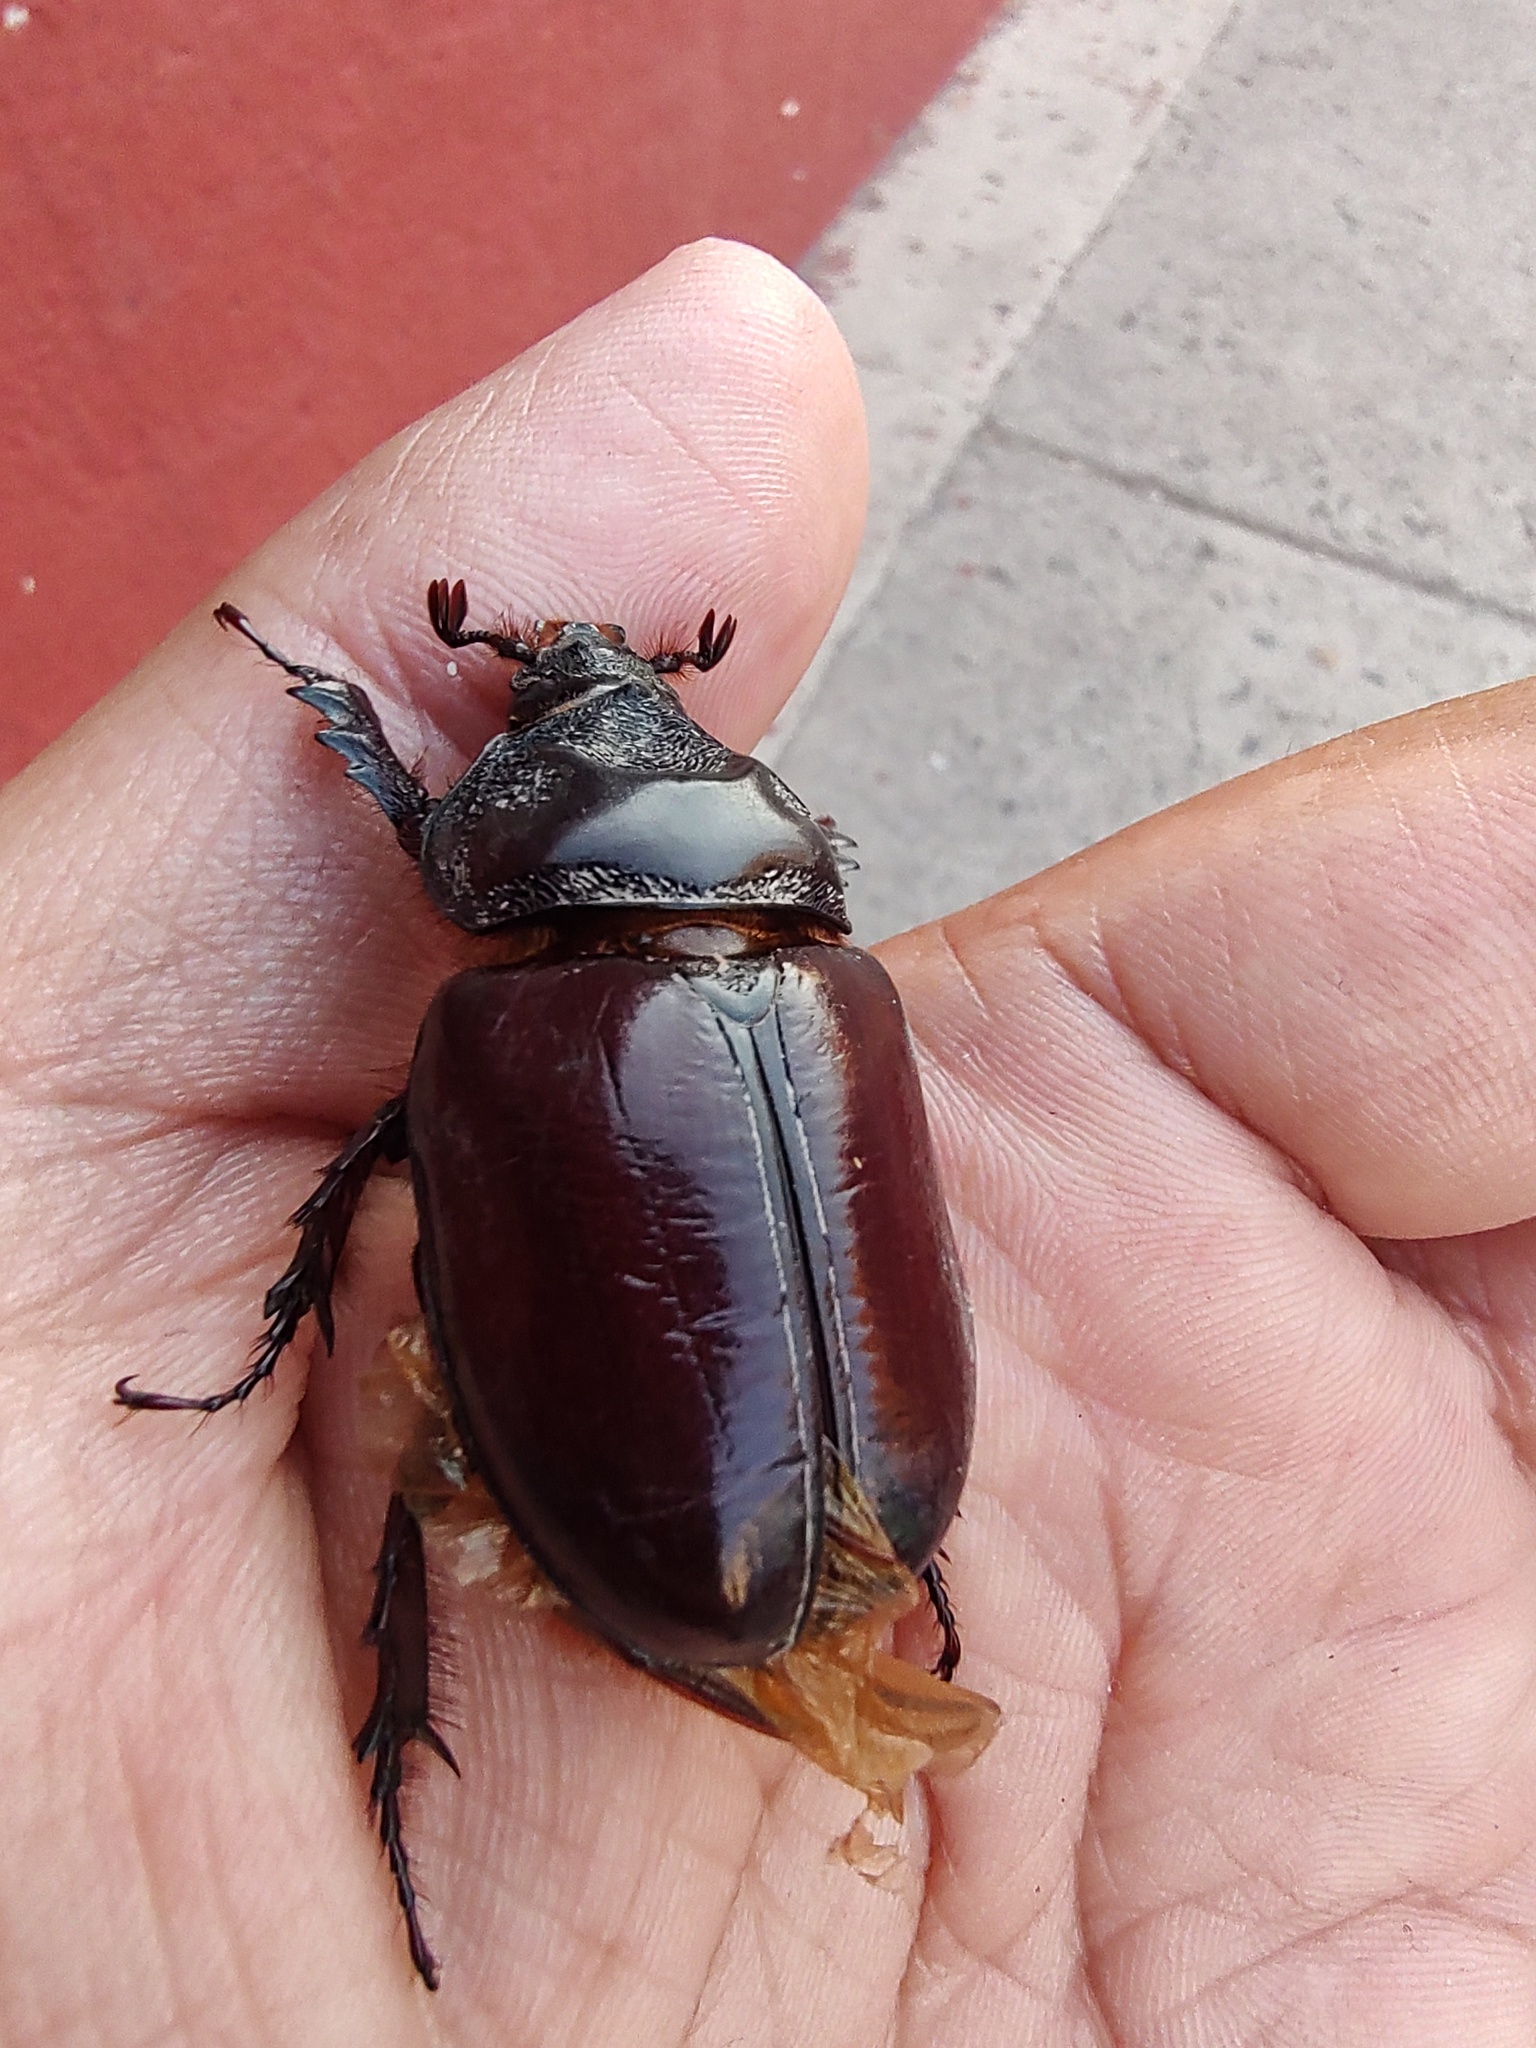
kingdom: Animalia
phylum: Arthropoda
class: Insecta
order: Coleoptera
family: Scarabaeidae
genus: Strategus
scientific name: Strategus aloeus
